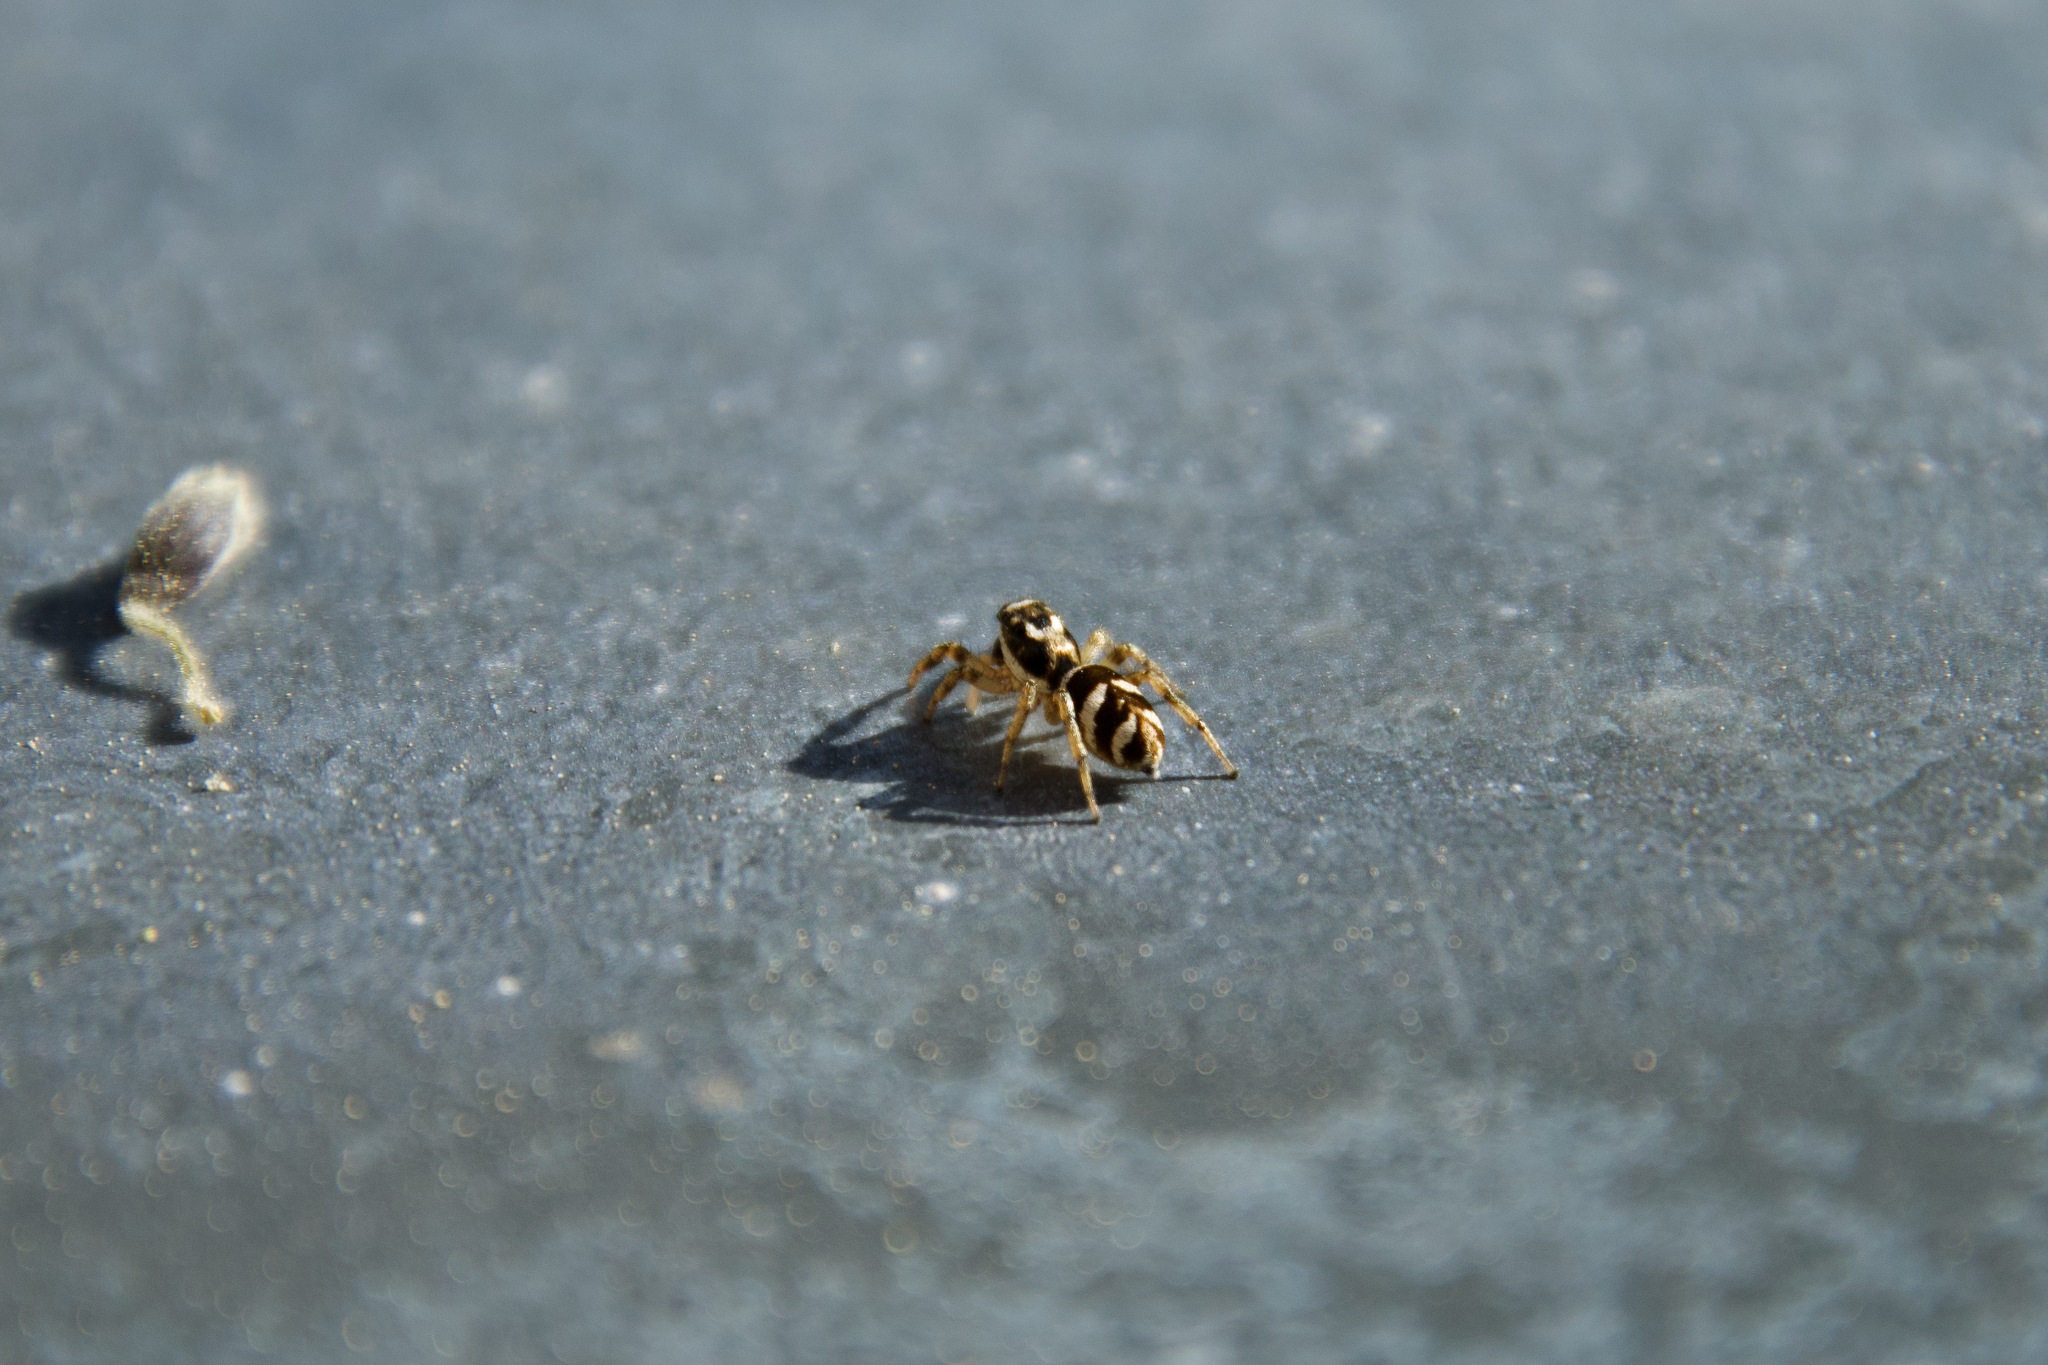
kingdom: Animalia
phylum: Arthropoda
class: Arachnida
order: Araneae
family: Salticidae
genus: Salticus
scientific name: Salticus scenicus
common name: Zebra jumper
